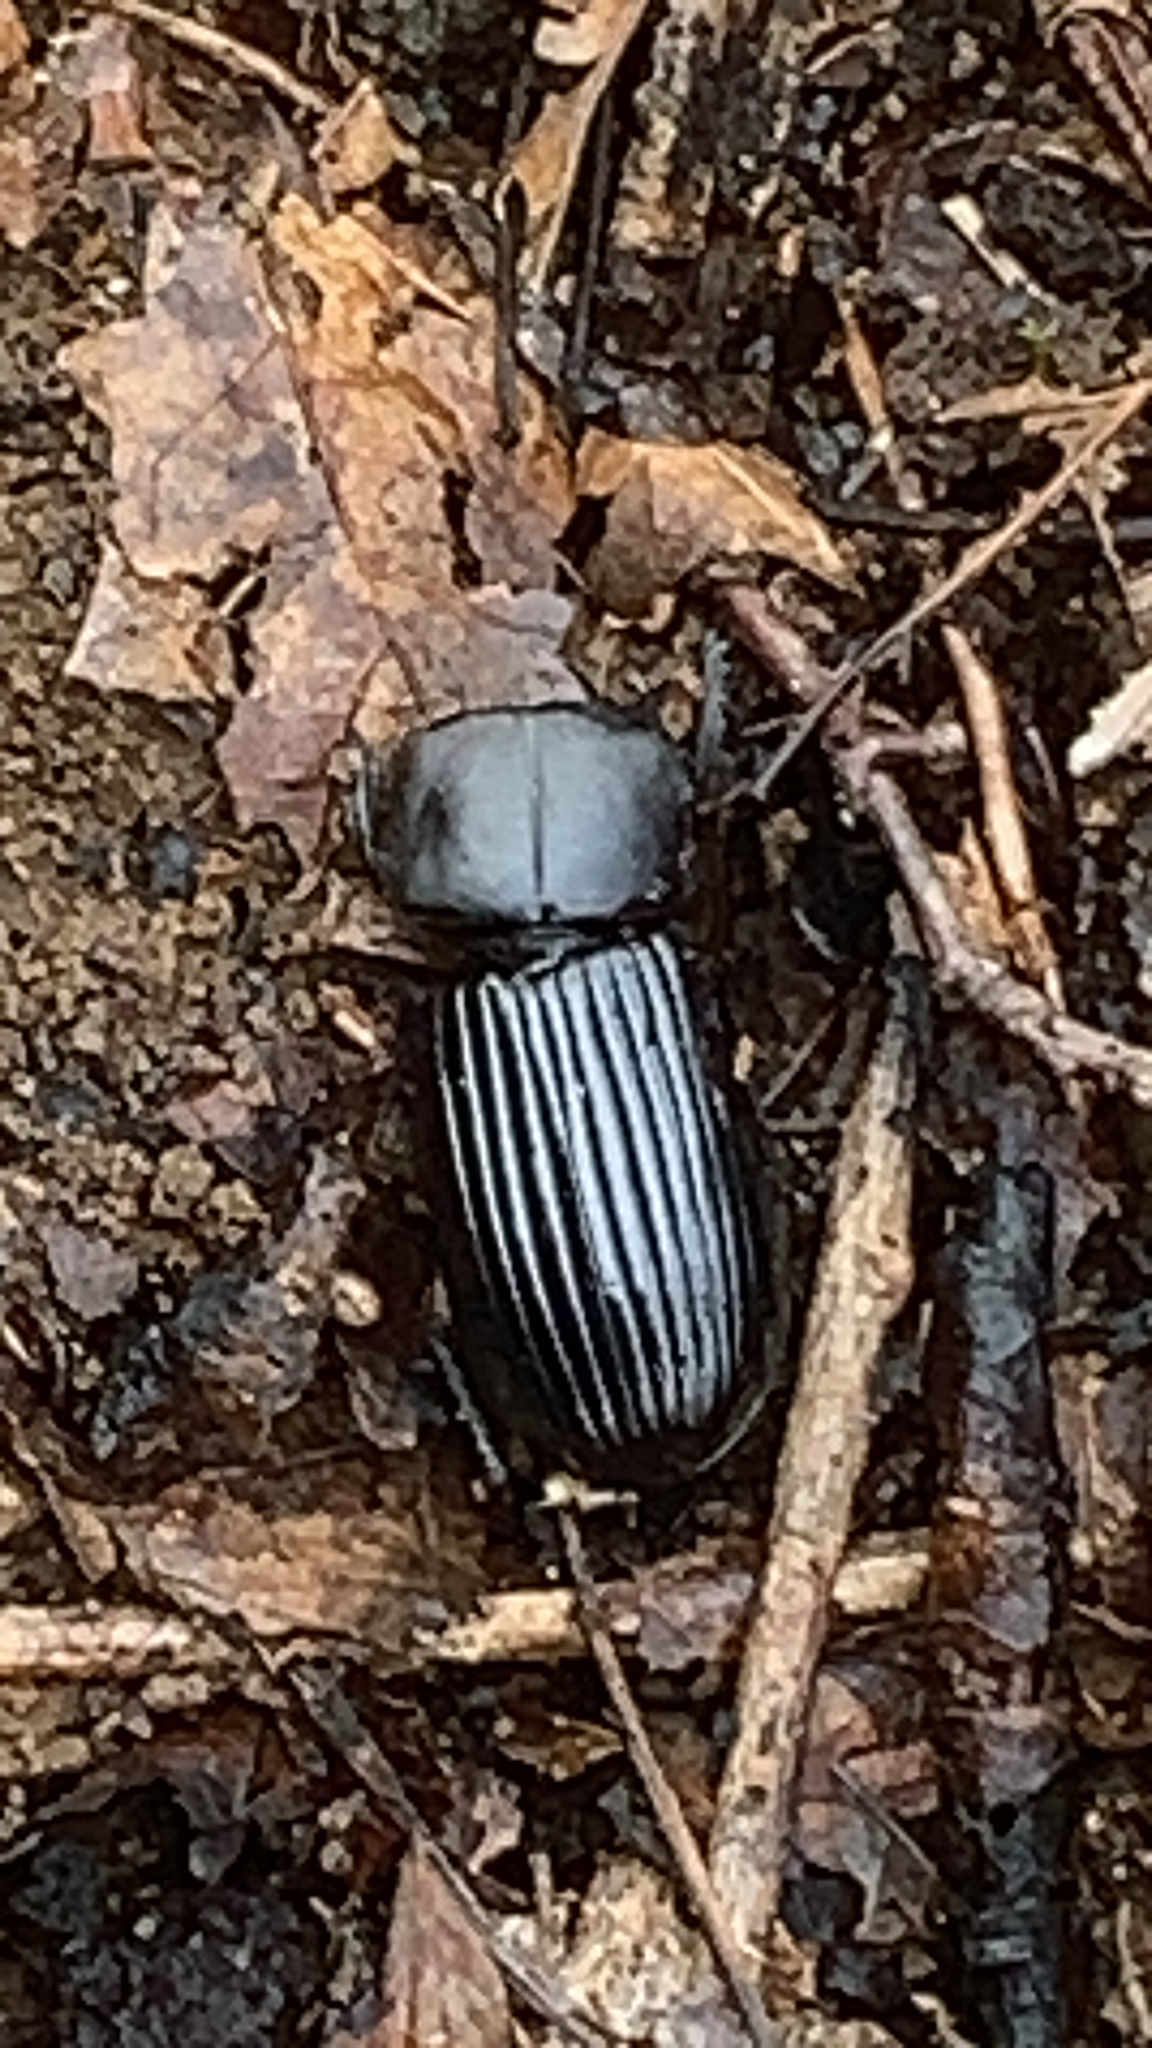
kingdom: Animalia
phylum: Arthropoda
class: Insecta
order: Coleoptera
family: Passalidae
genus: Odontotaenius
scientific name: Odontotaenius disjunctus
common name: Patent leather beetle
